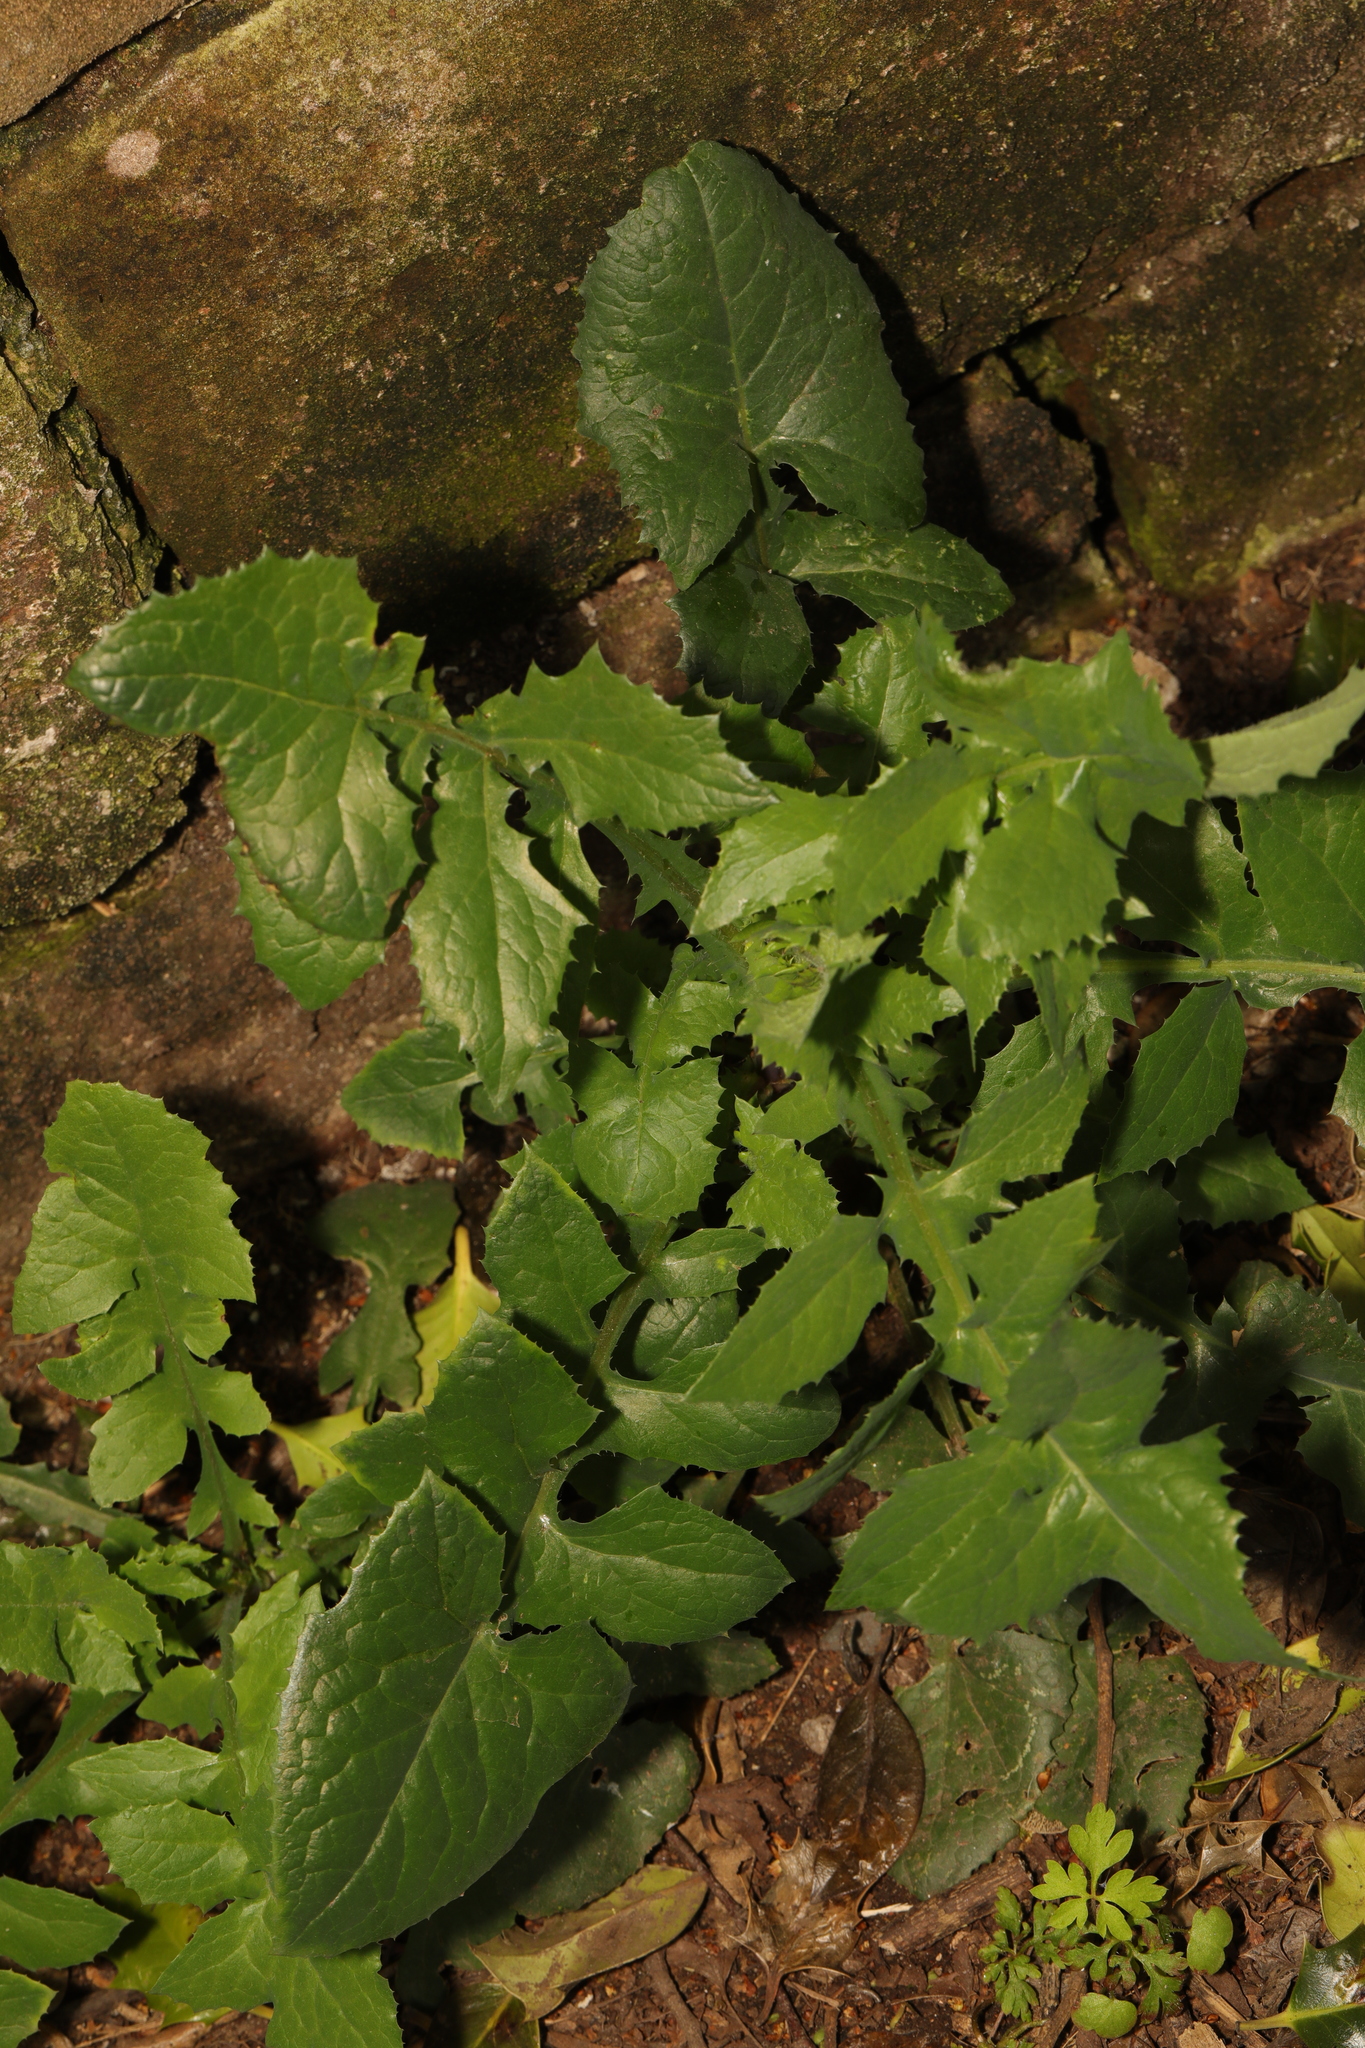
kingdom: Plantae
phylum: Tracheophyta
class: Magnoliopsida
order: Asterales
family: Asteraceae
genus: Sonchus
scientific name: Sonchus oleraceus
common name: Common sowthistle
